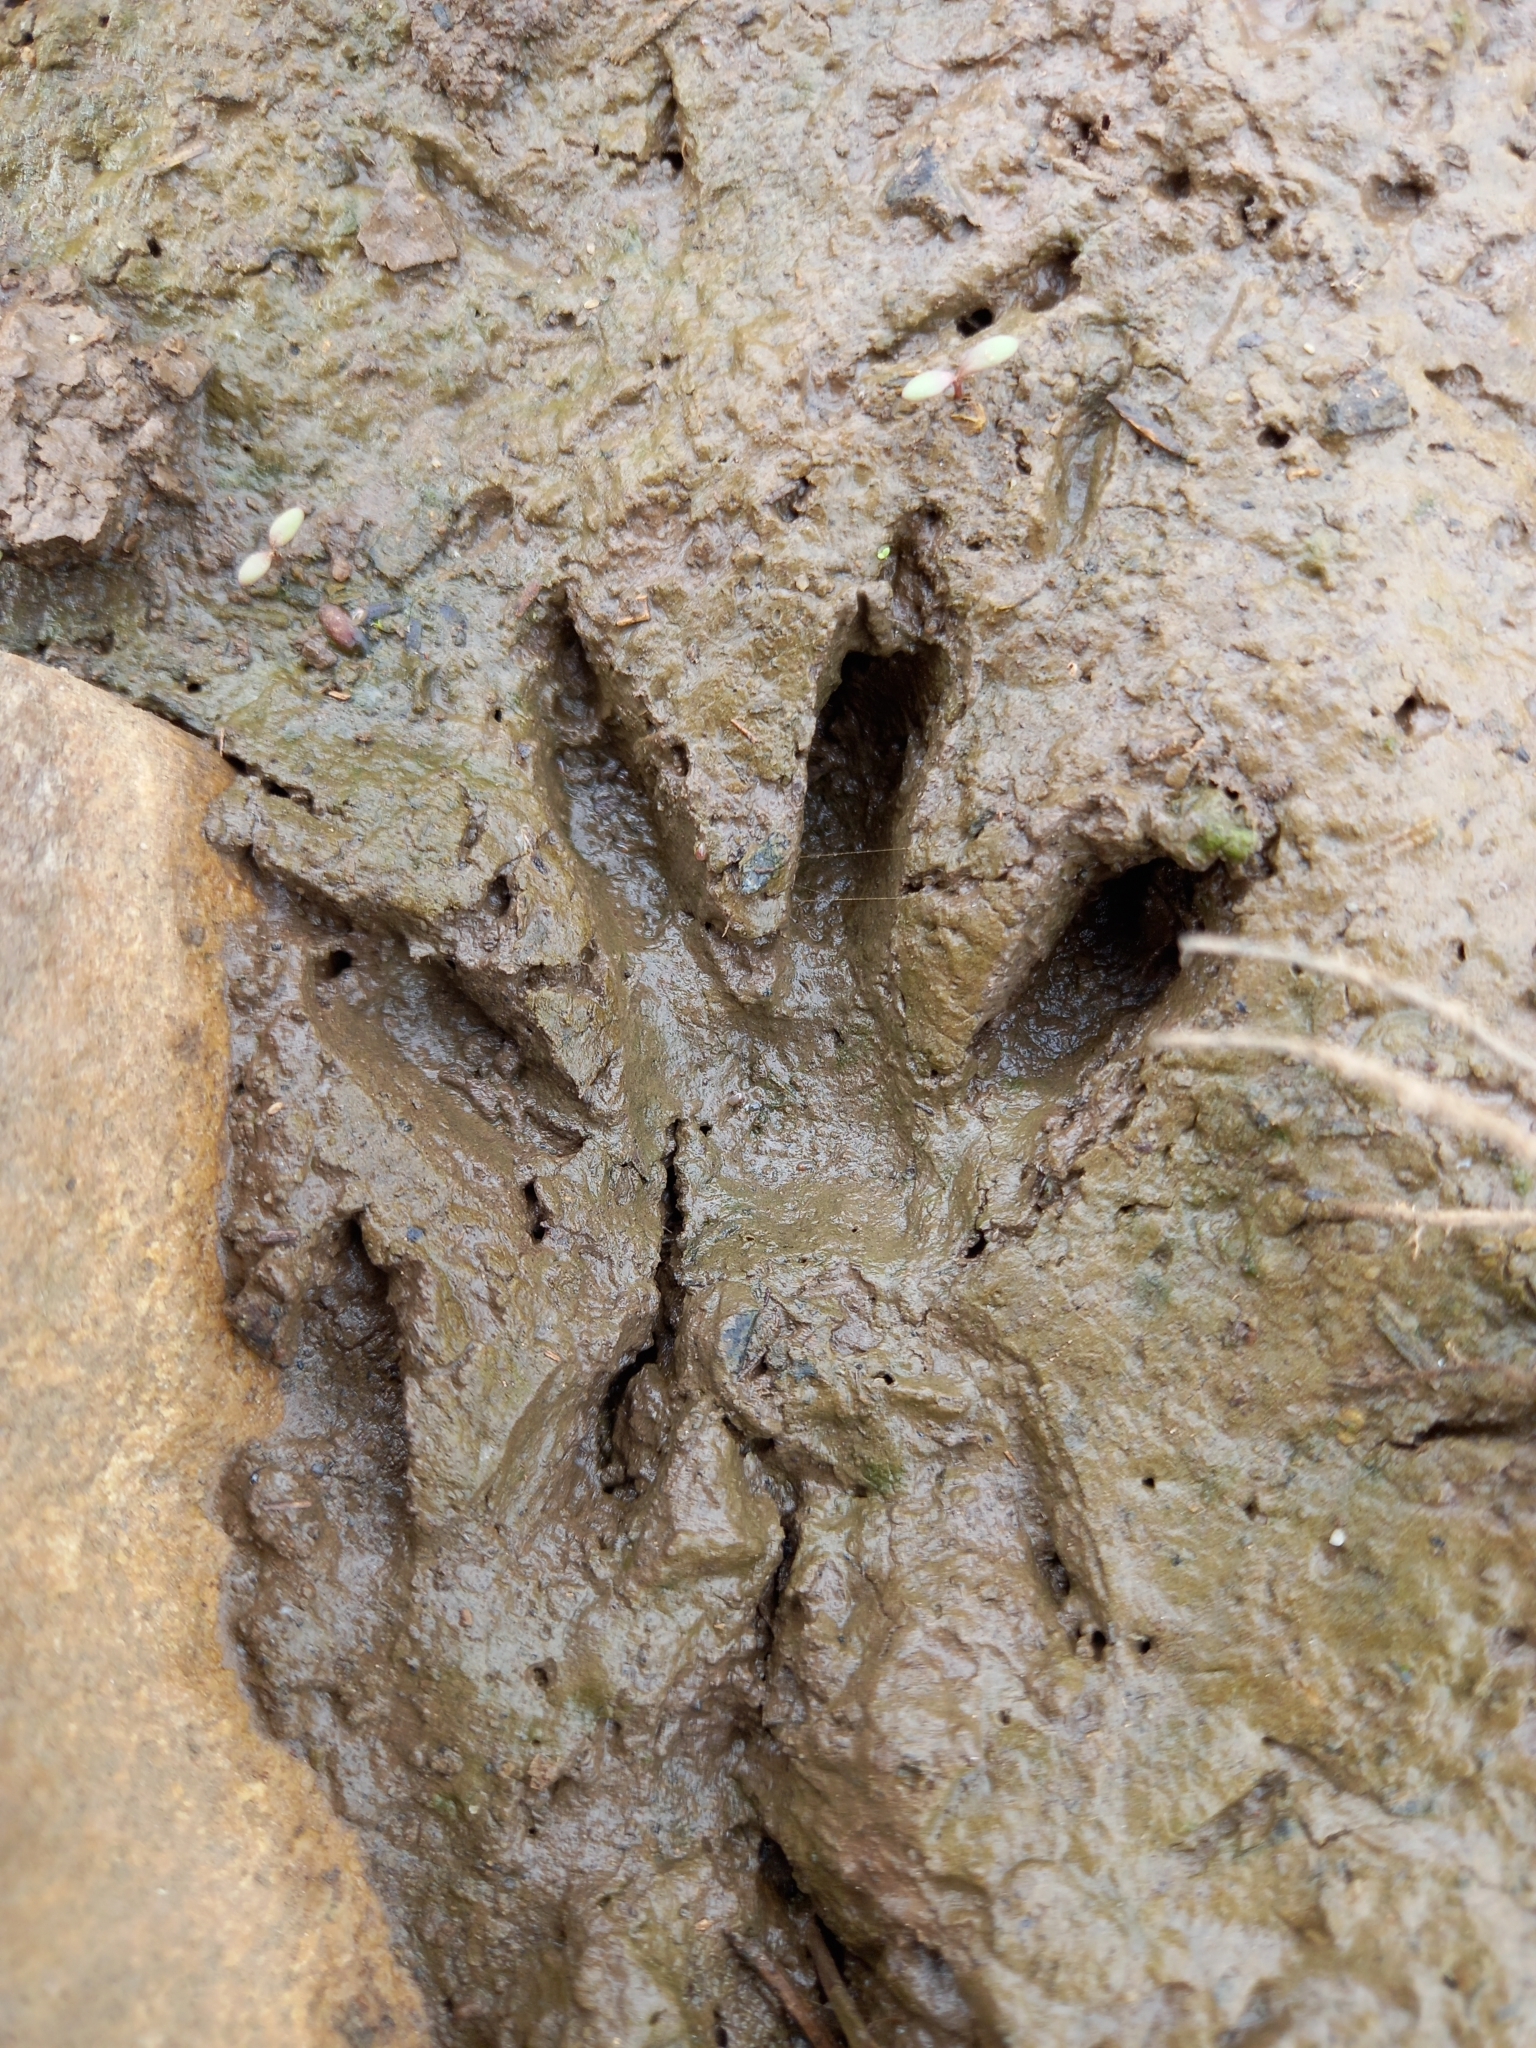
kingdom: Animalia
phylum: Chordata
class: Mammalia
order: Carnivora
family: Herpestidae
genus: Atilax
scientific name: Atilax paludinosus
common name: Marsh mongoose
